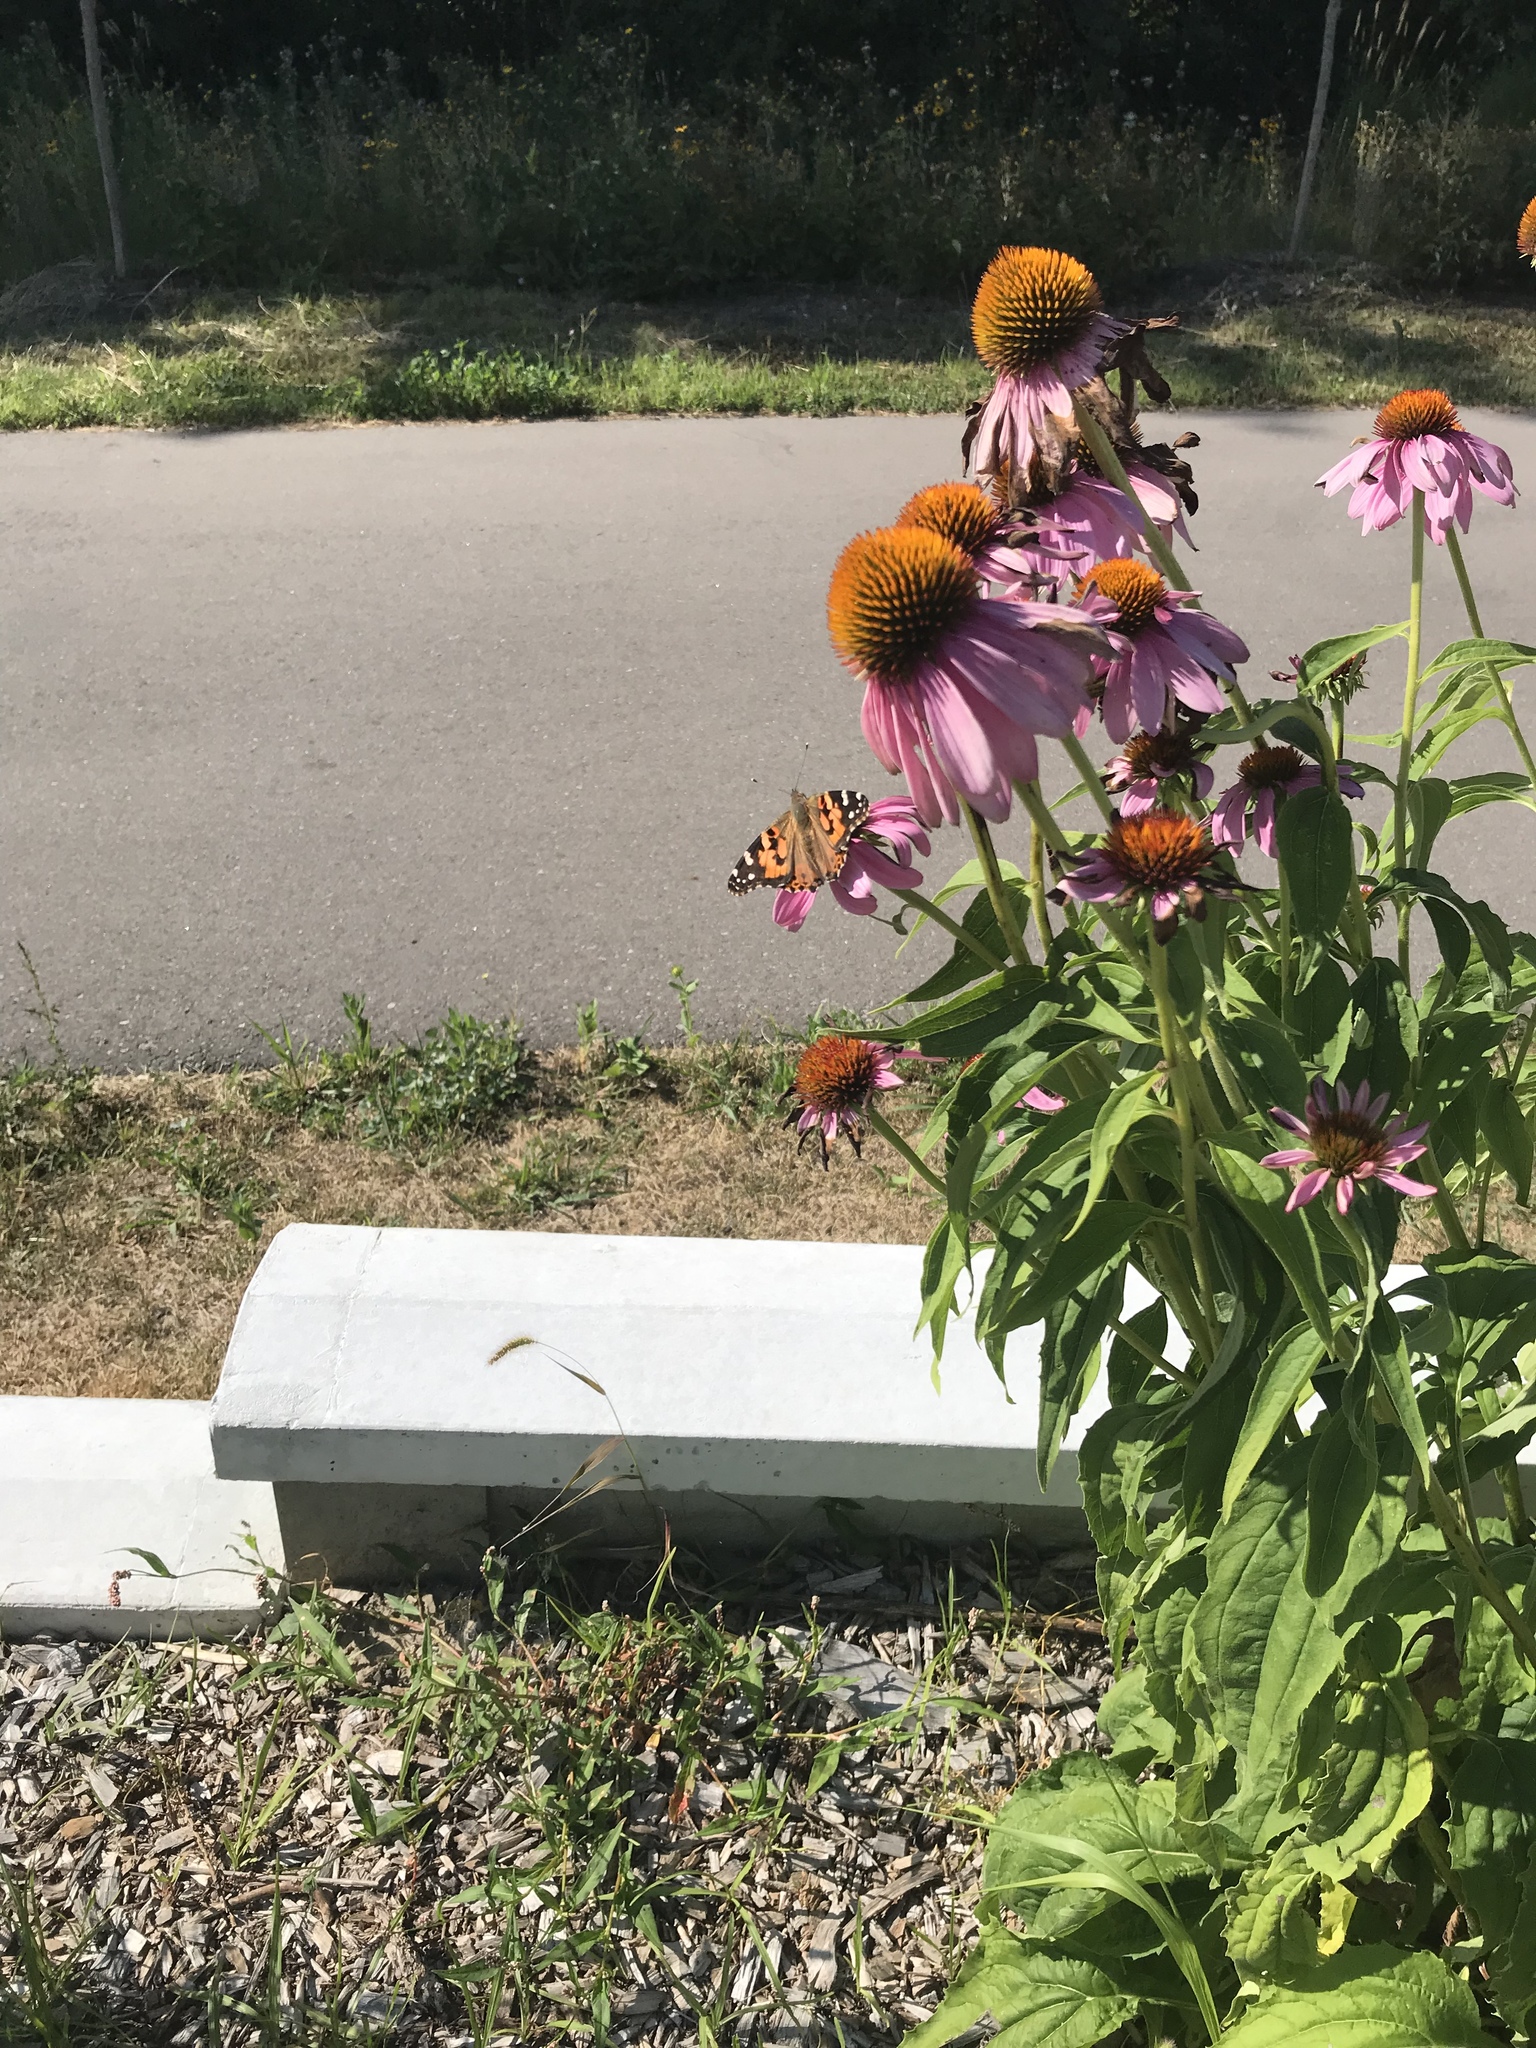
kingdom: Animalia
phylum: Arthropoda
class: Insecta
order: Lepidoptera
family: Nymphalidae
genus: Vanessa
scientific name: Vanessa cardui
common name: Painted lady
